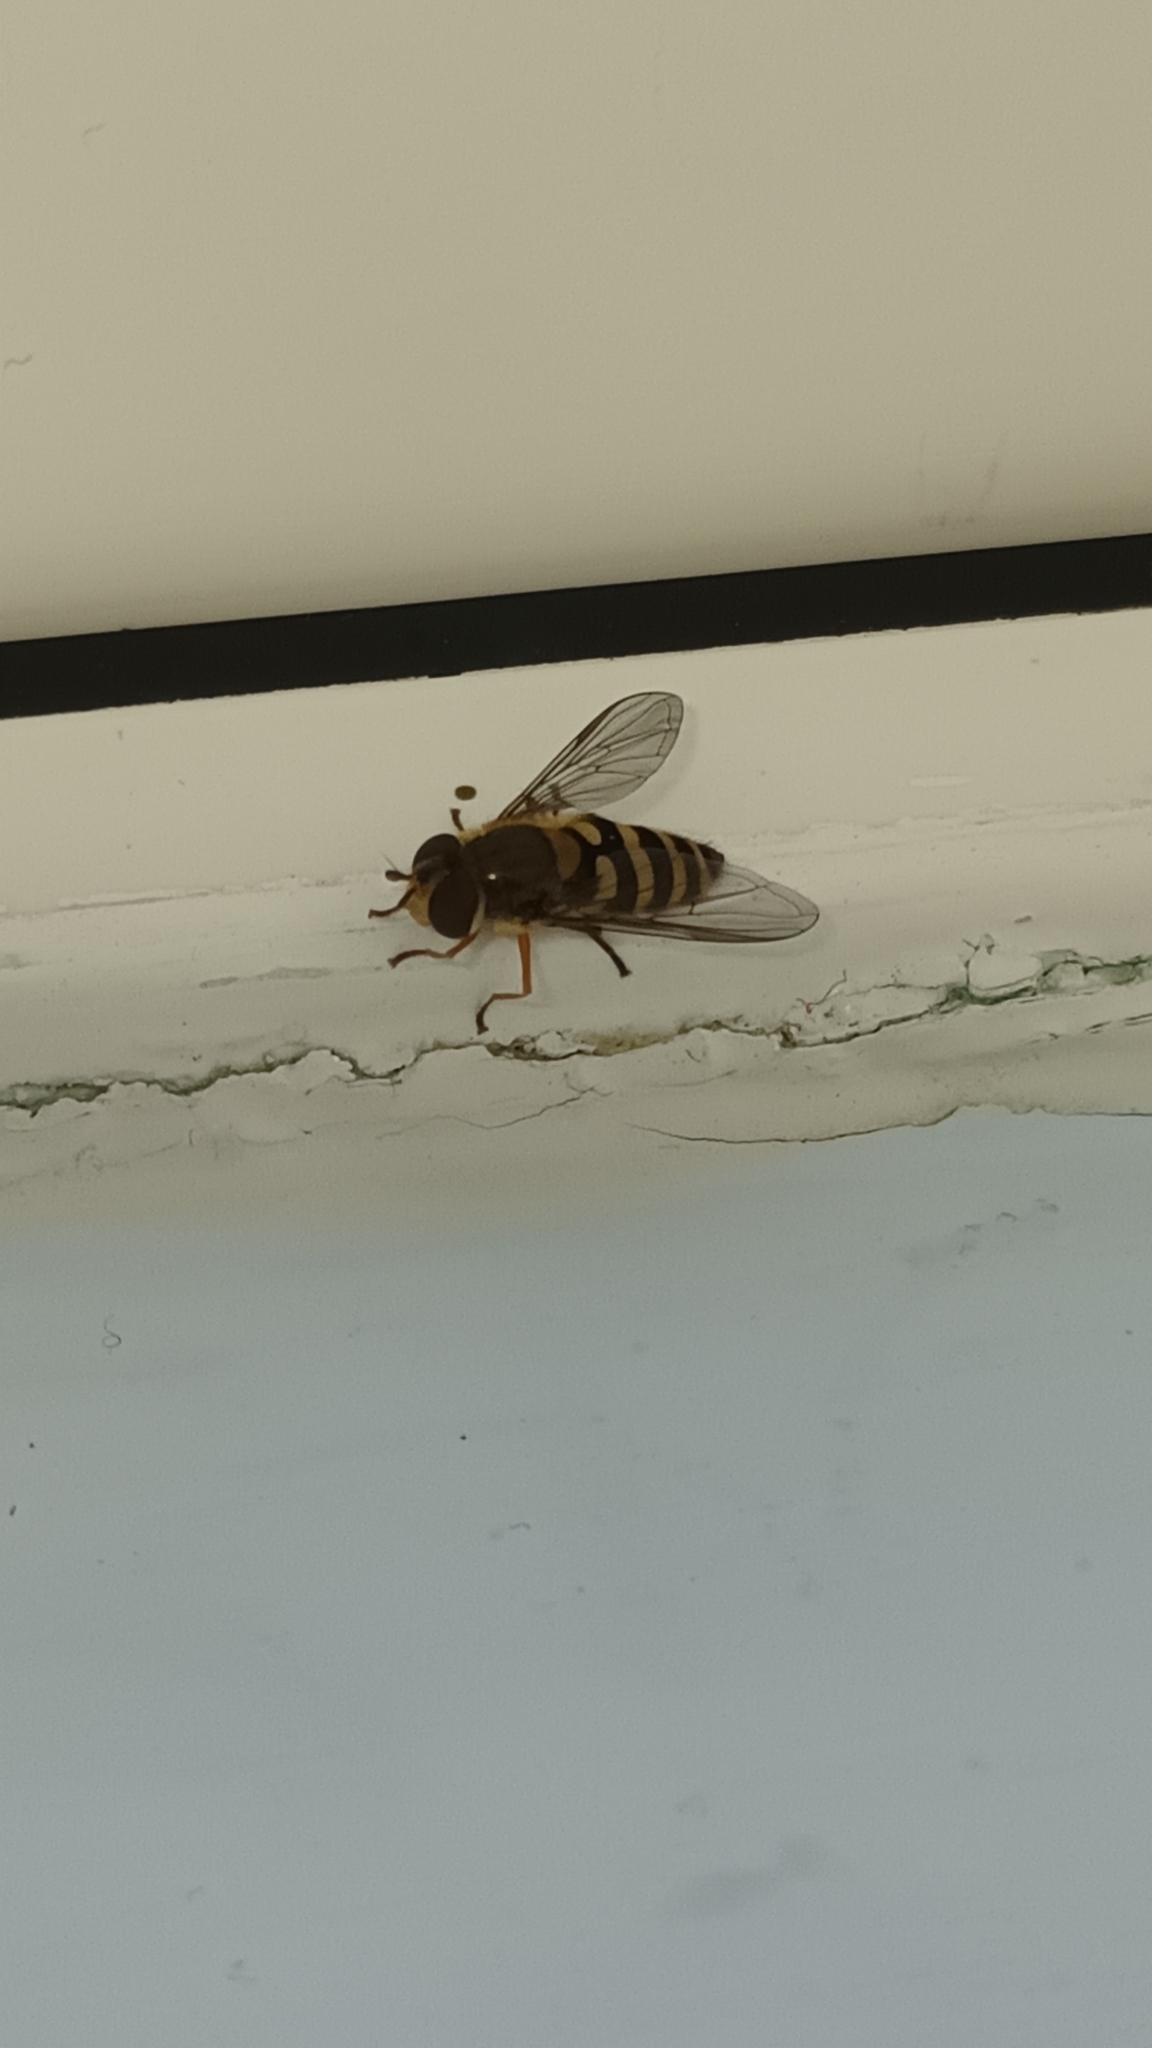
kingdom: Animalia
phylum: Arthropoda
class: Insecta
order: Diptera
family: Syrphidae
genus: Syrphus
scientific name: Syrphus
